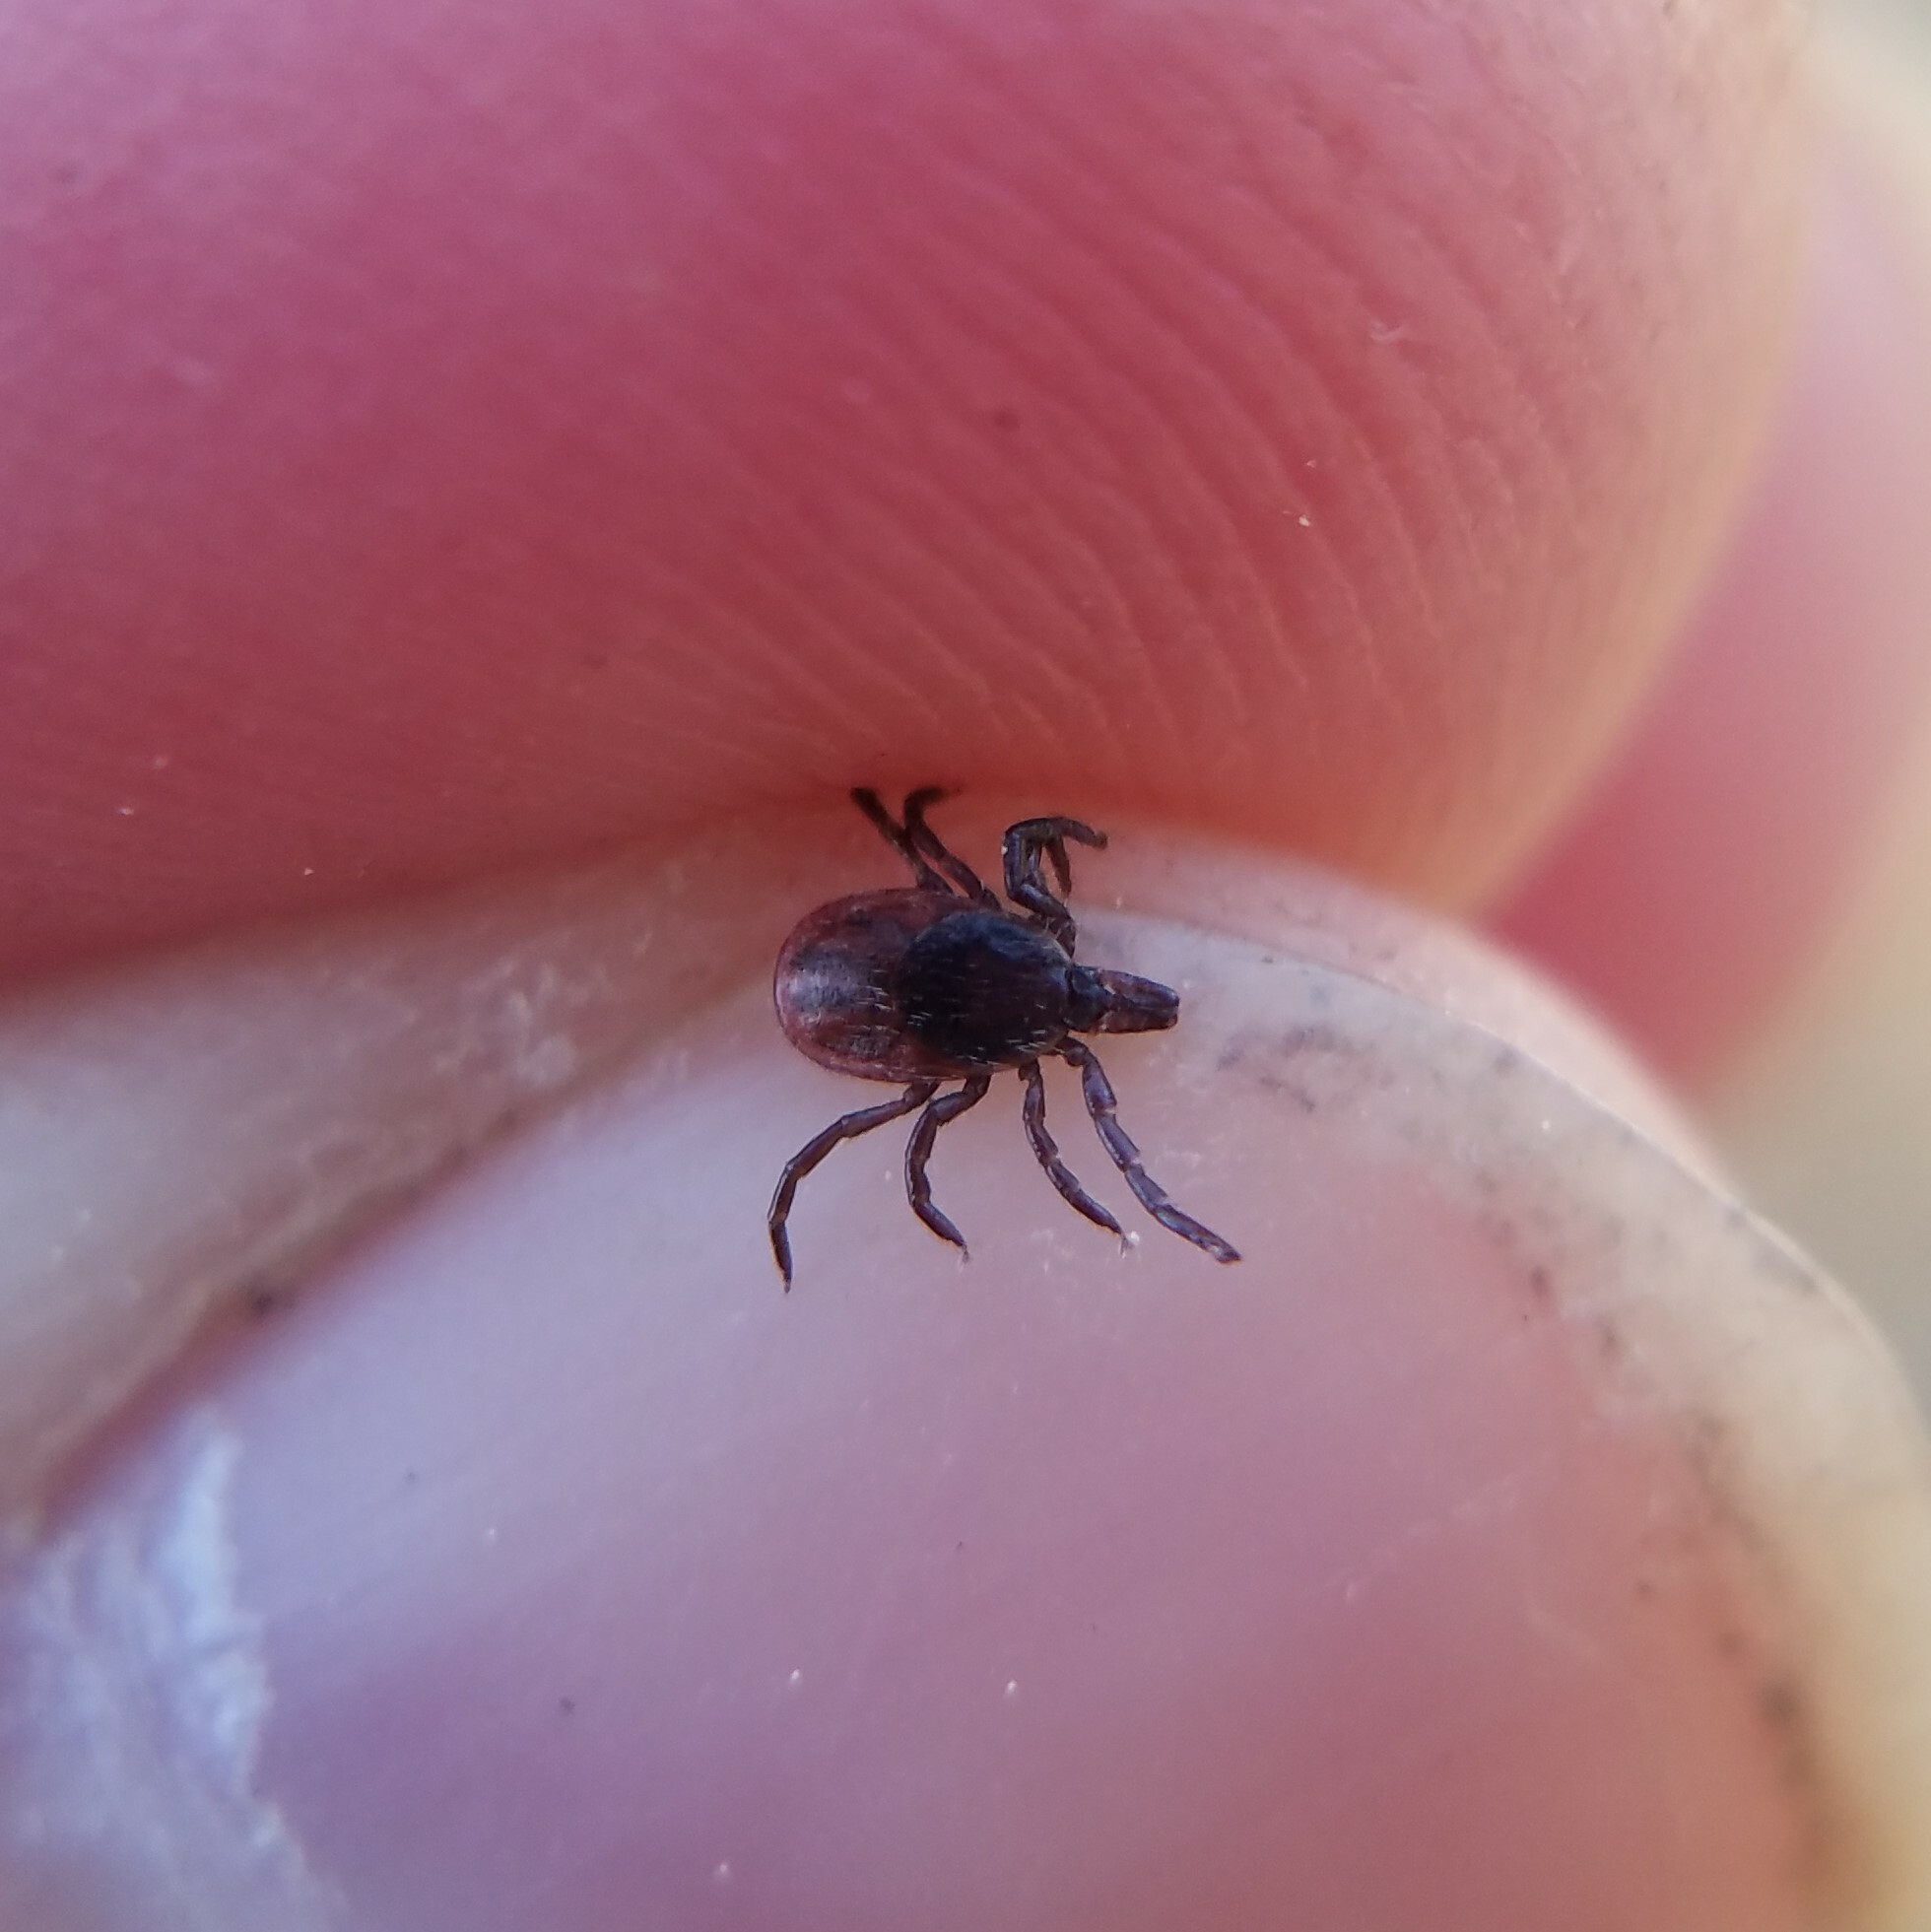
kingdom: Animalia
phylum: Arthropoda
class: Arachnida
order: Ixodida
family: Ixodidae
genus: Ixodes
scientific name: Ixodes scapularis
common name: Black legged tick
